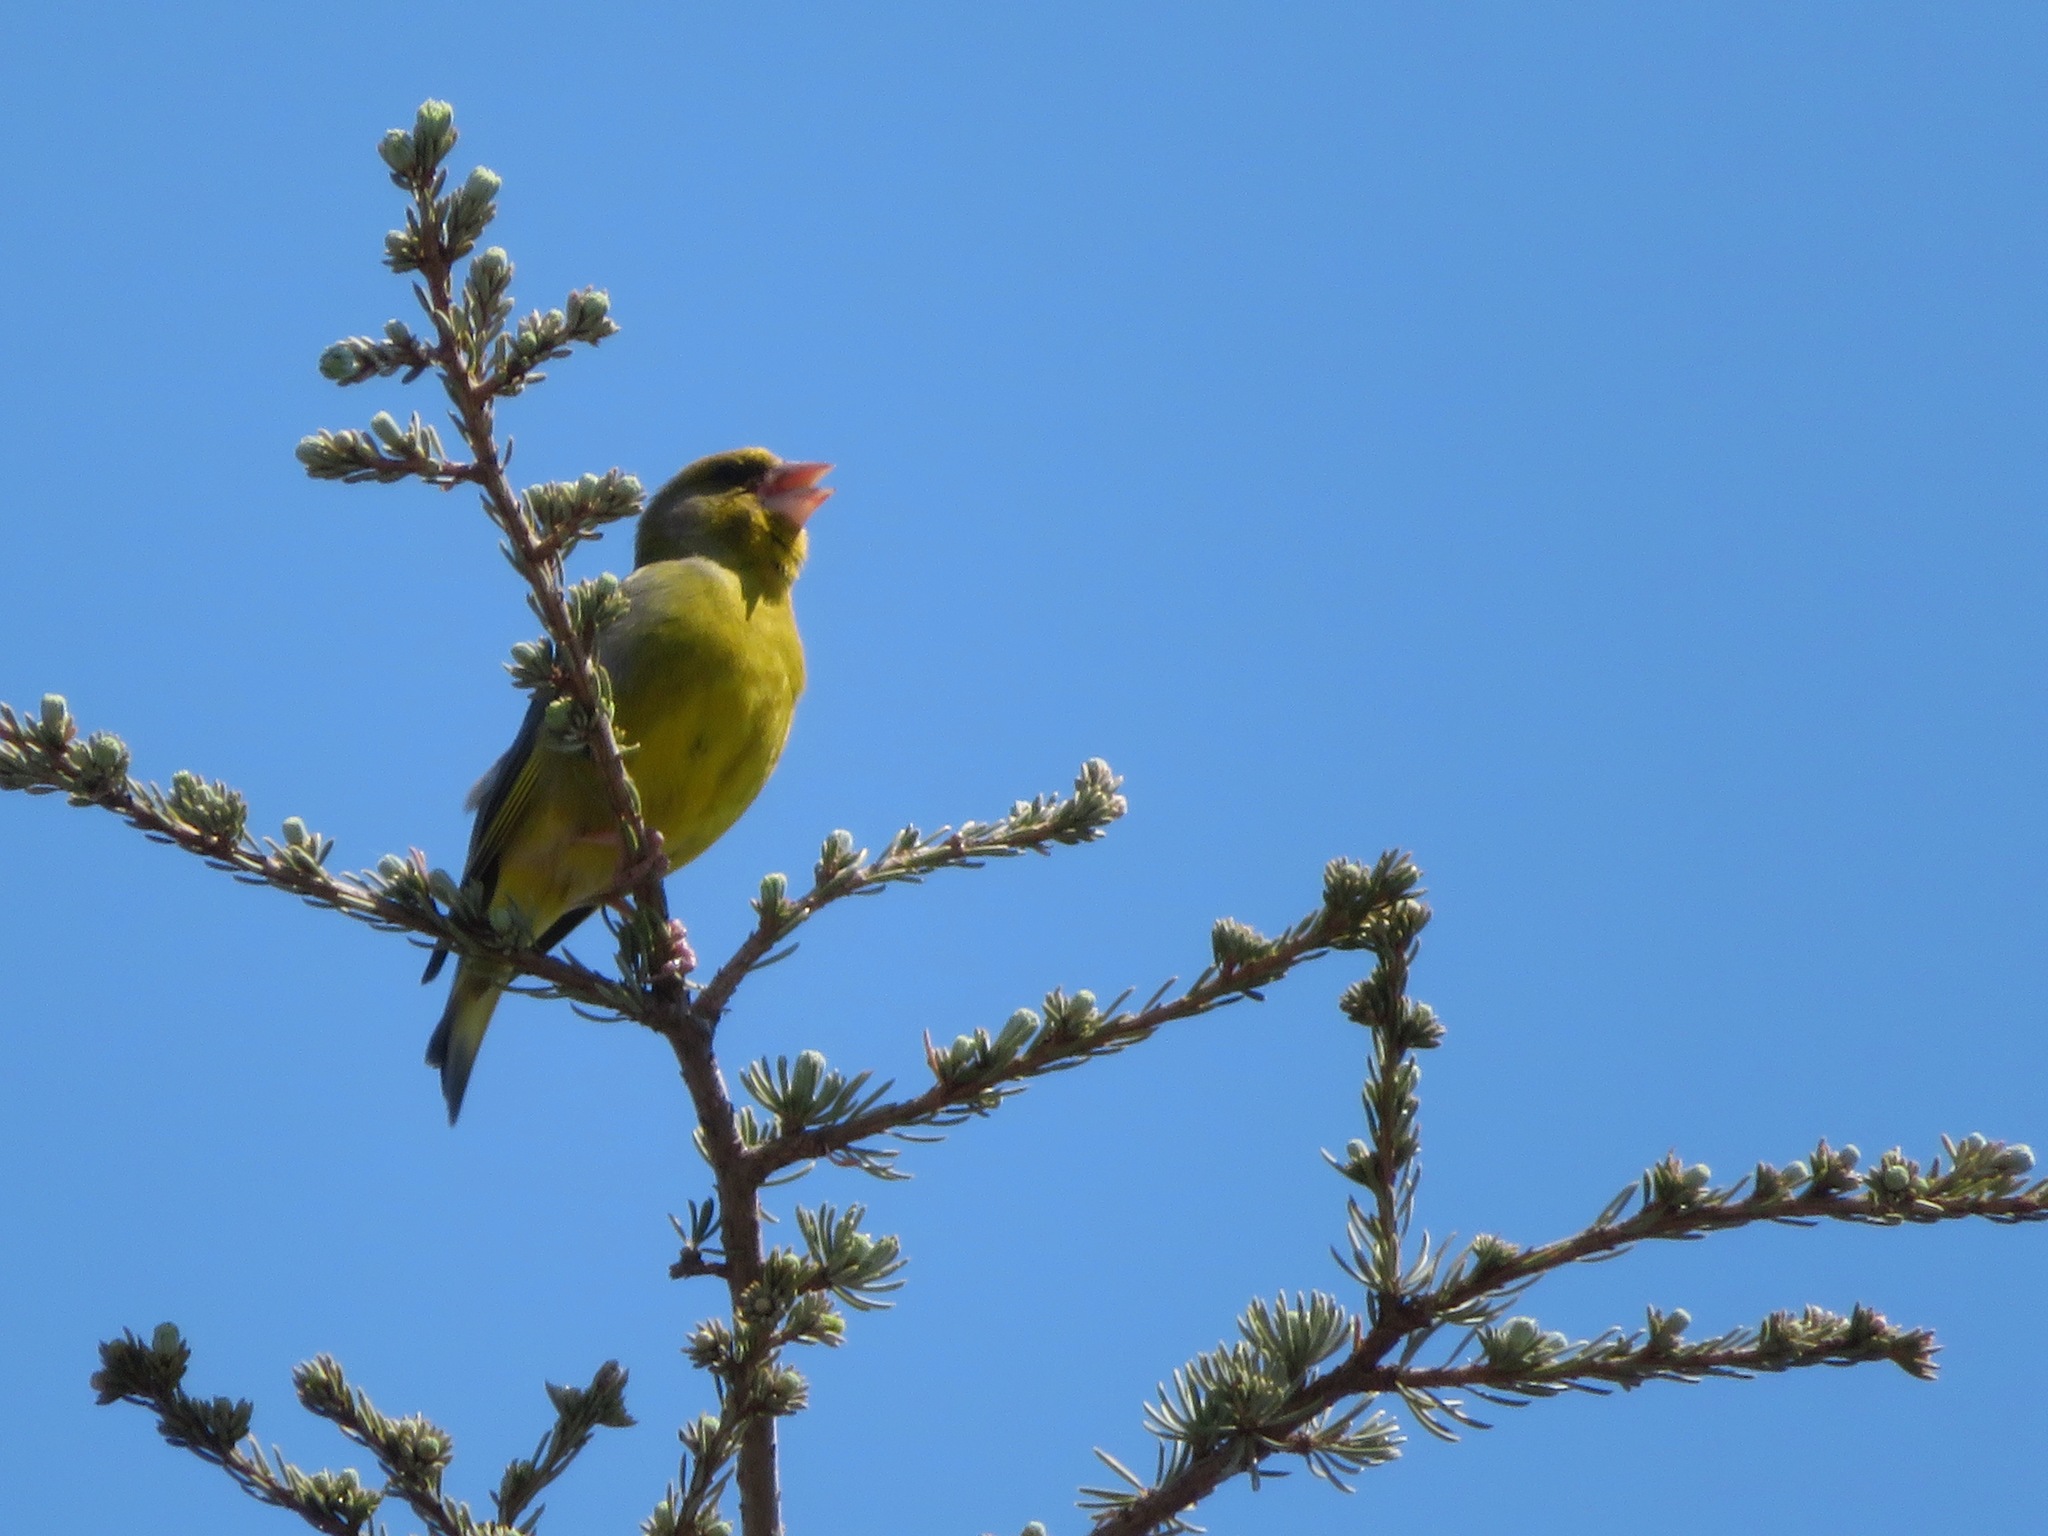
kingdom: Plantae
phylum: Tracheophyta
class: Liliopsida
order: Poales
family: Poaceae
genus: Chloris
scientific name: Chloris chloris
